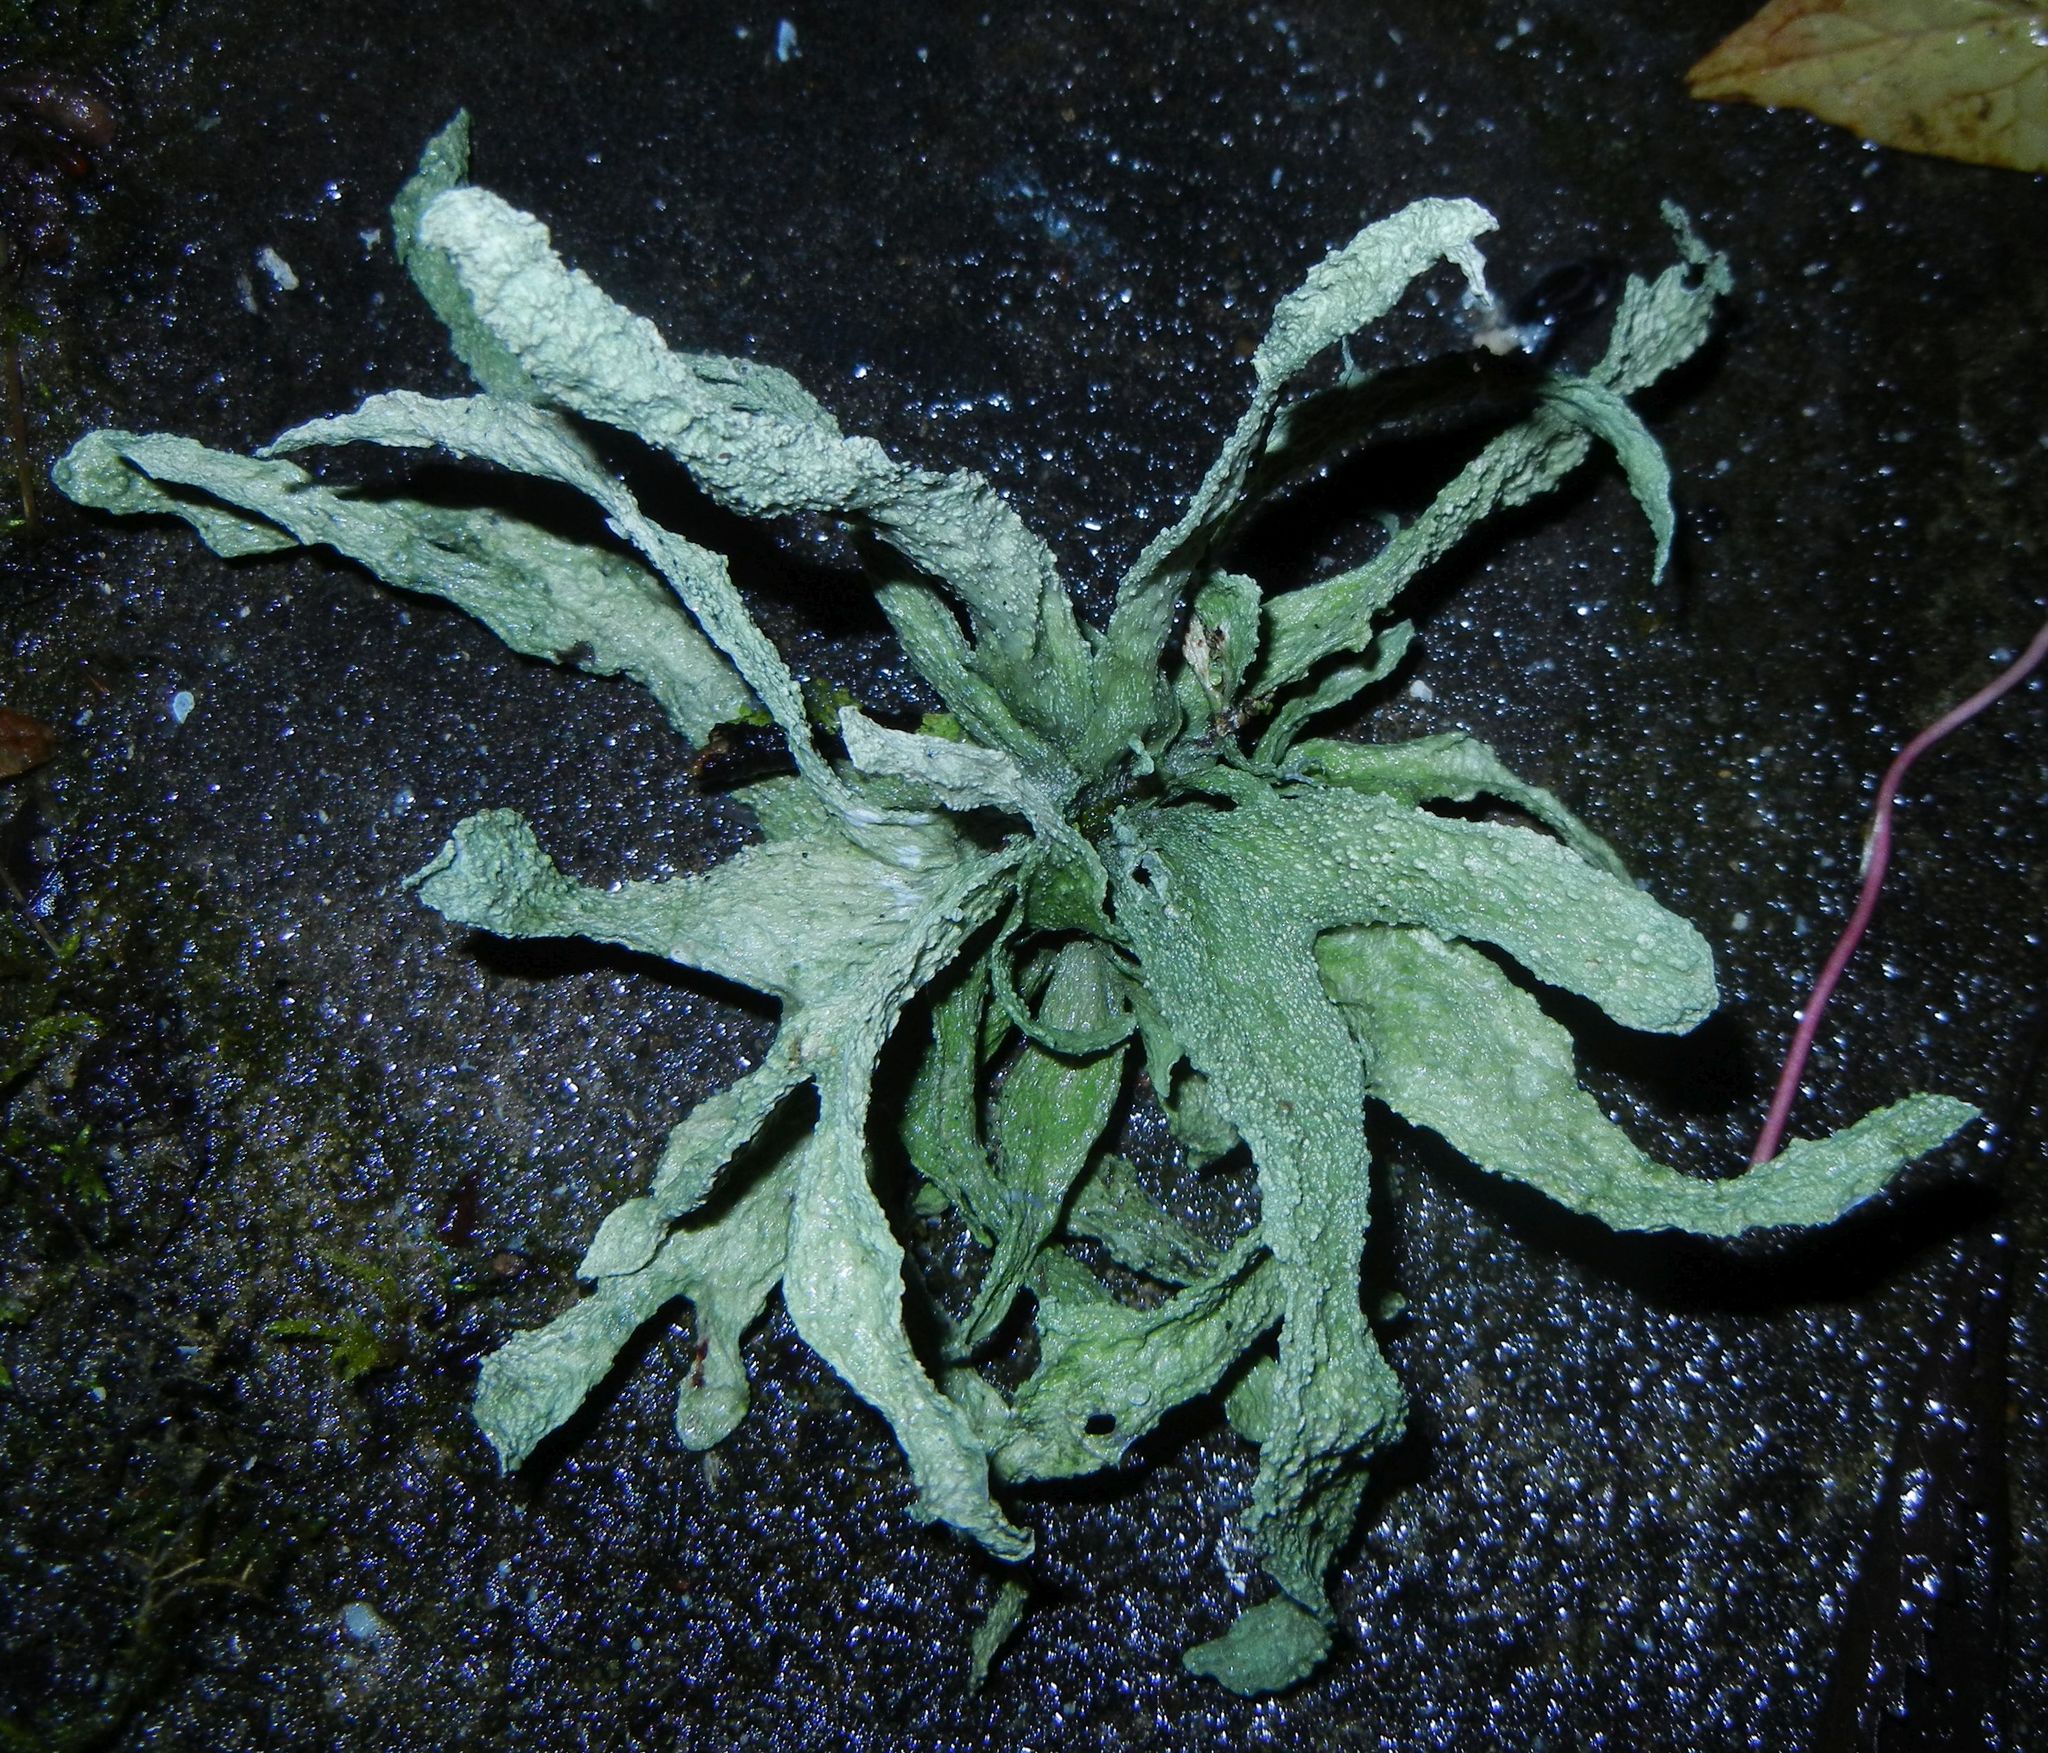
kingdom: Fungi
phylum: Ascomycota
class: Lecanoromycetes
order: Lecanorales
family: Ramalinaceae
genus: Ramalina
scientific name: Ramalina fraxinea
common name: Cartilage lichen
